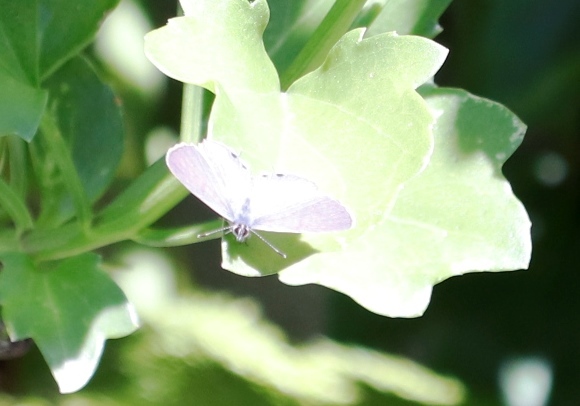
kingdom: Animalia
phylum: Arthropoda
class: Insecta
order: Lepidoptera
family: Lycaenidae
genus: Leptotes
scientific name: Leptotes
